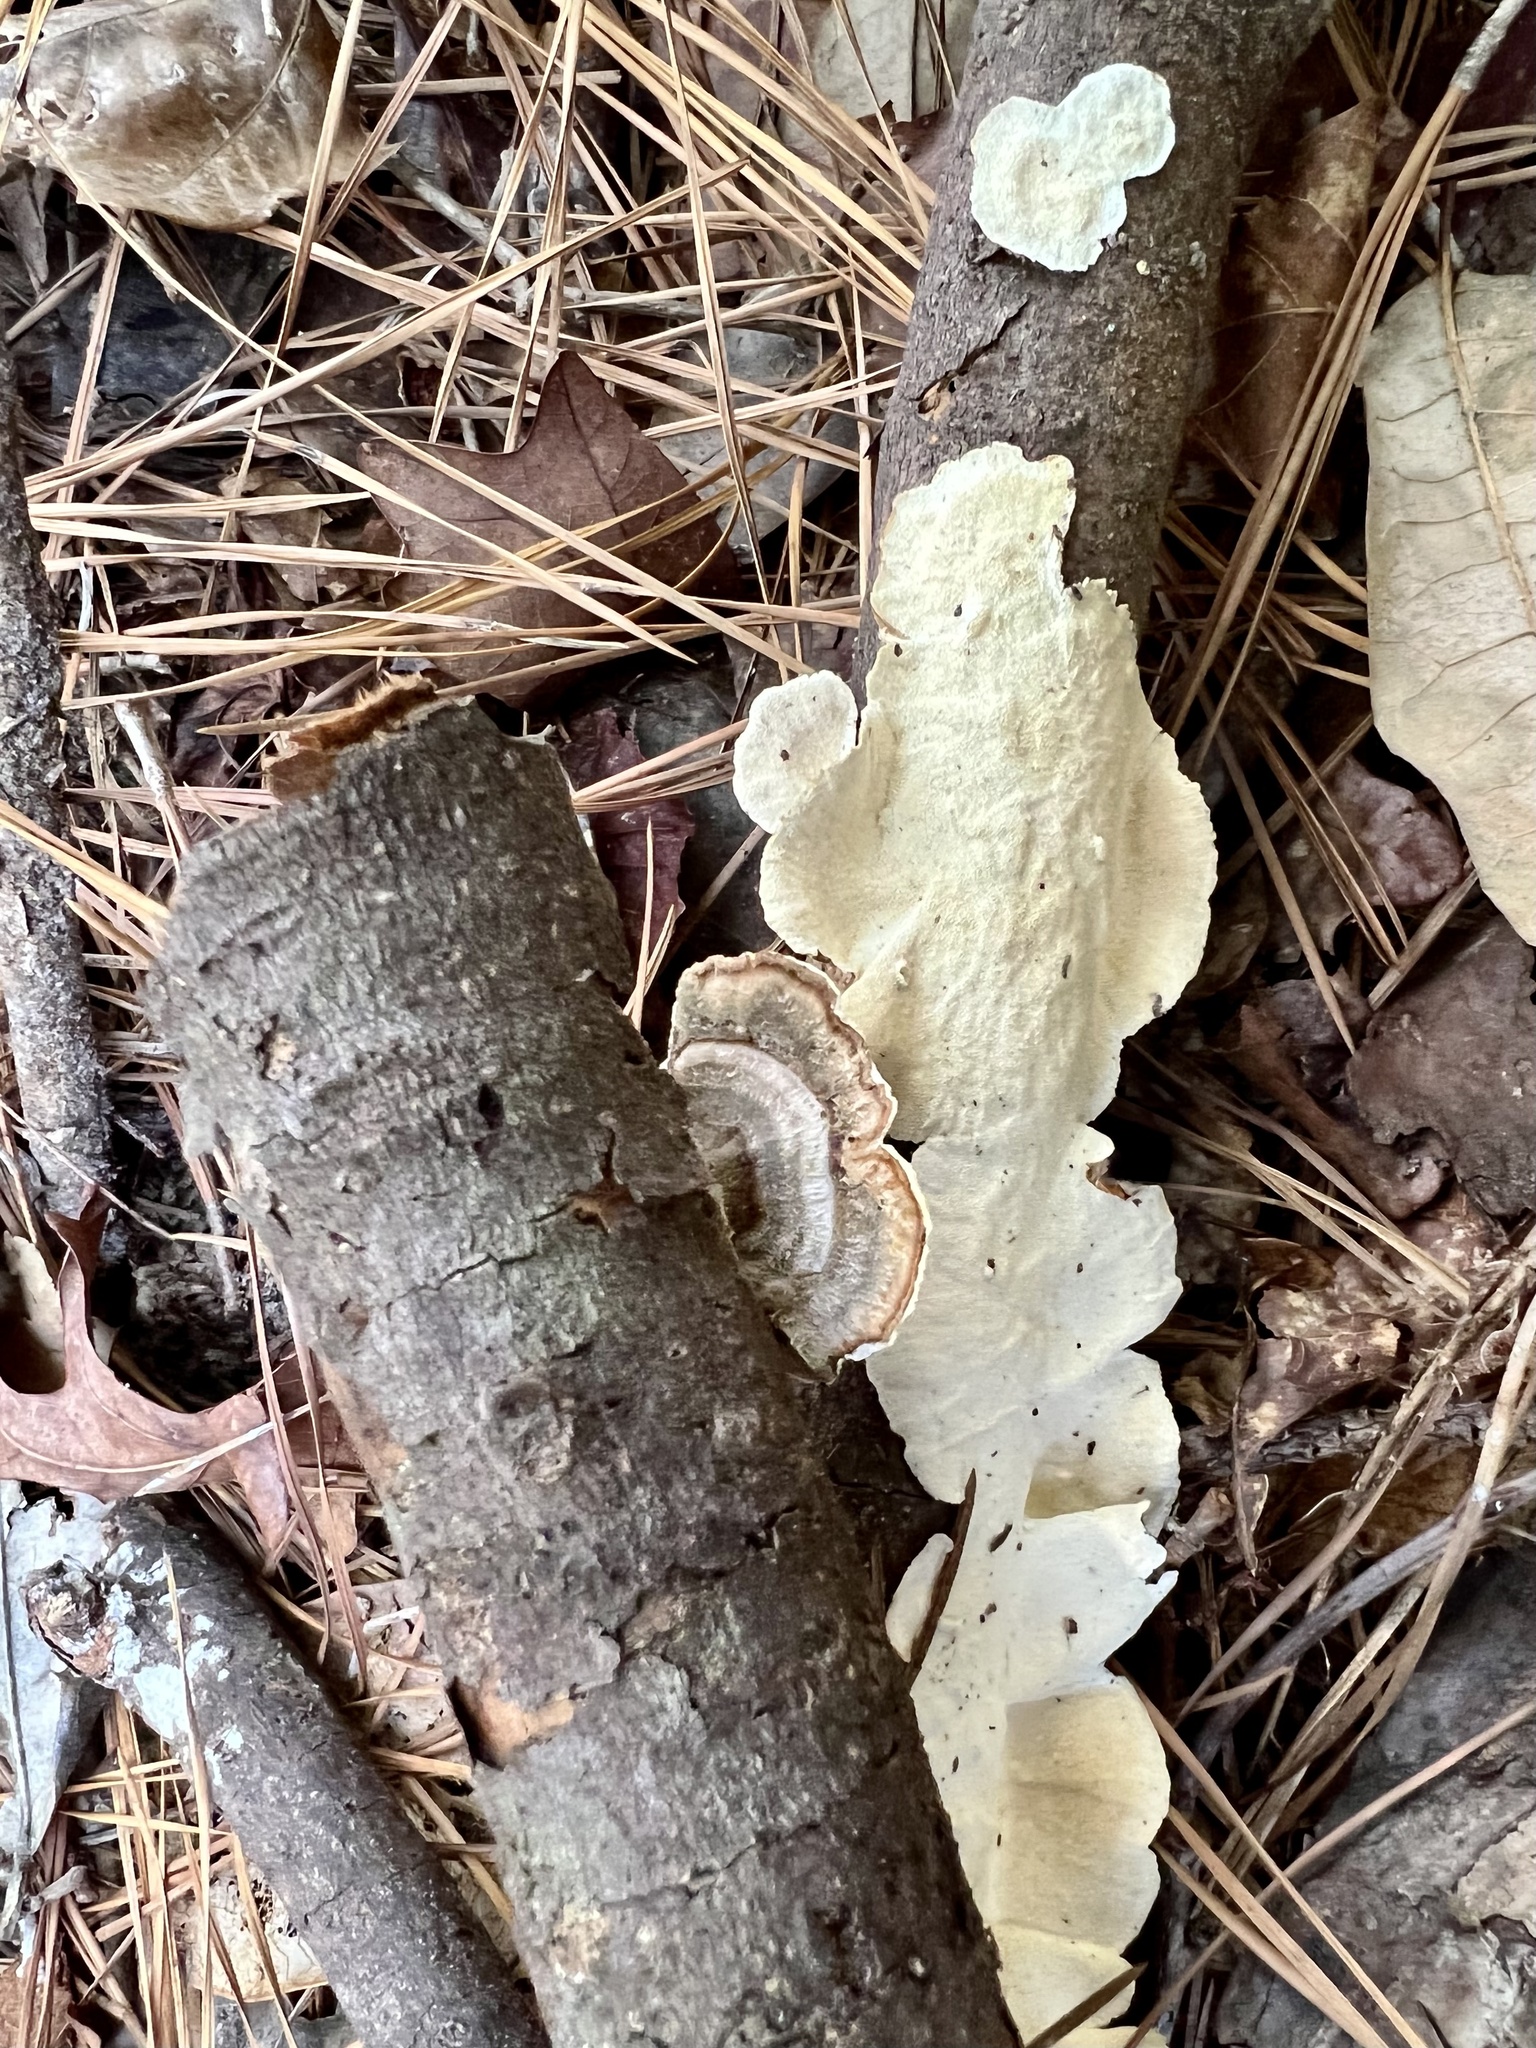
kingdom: Fungi
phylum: Basidiomycota
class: Agaricomycetes
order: Polyporales
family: Polyporaceae
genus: Trametes
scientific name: Trametes versicolor
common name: Turkeytail
